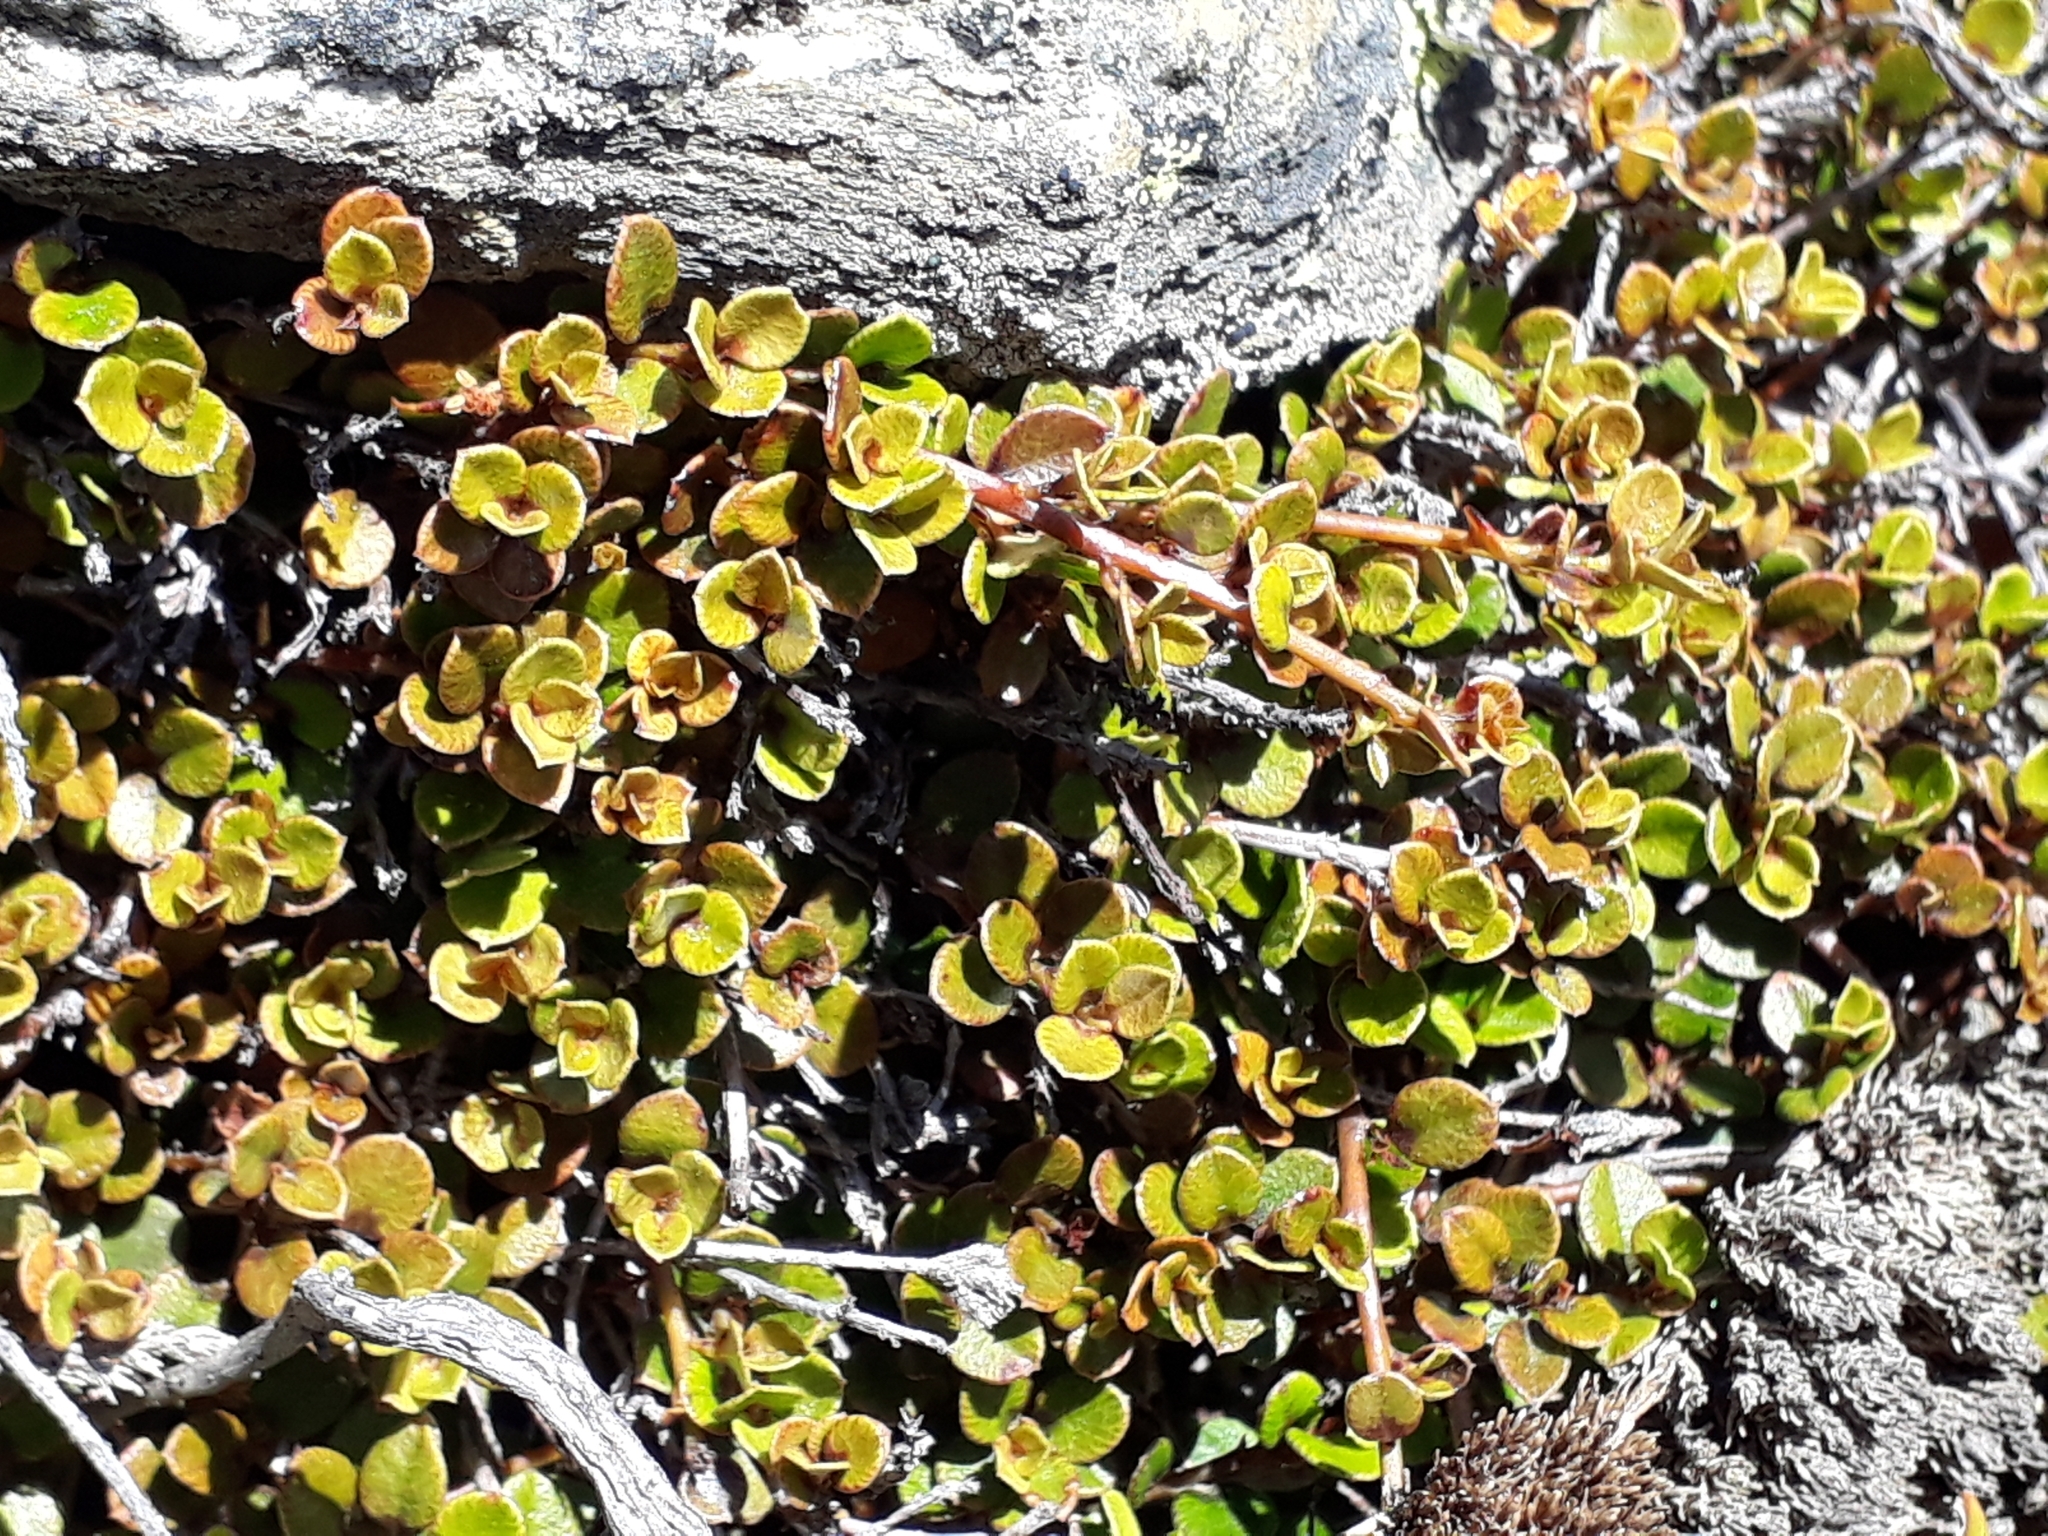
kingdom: Plantae
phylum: Tracheophyta
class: Magnoliopsida
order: Ericales
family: Primulaceae
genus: Myrsine
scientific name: Myrsine nummularia
